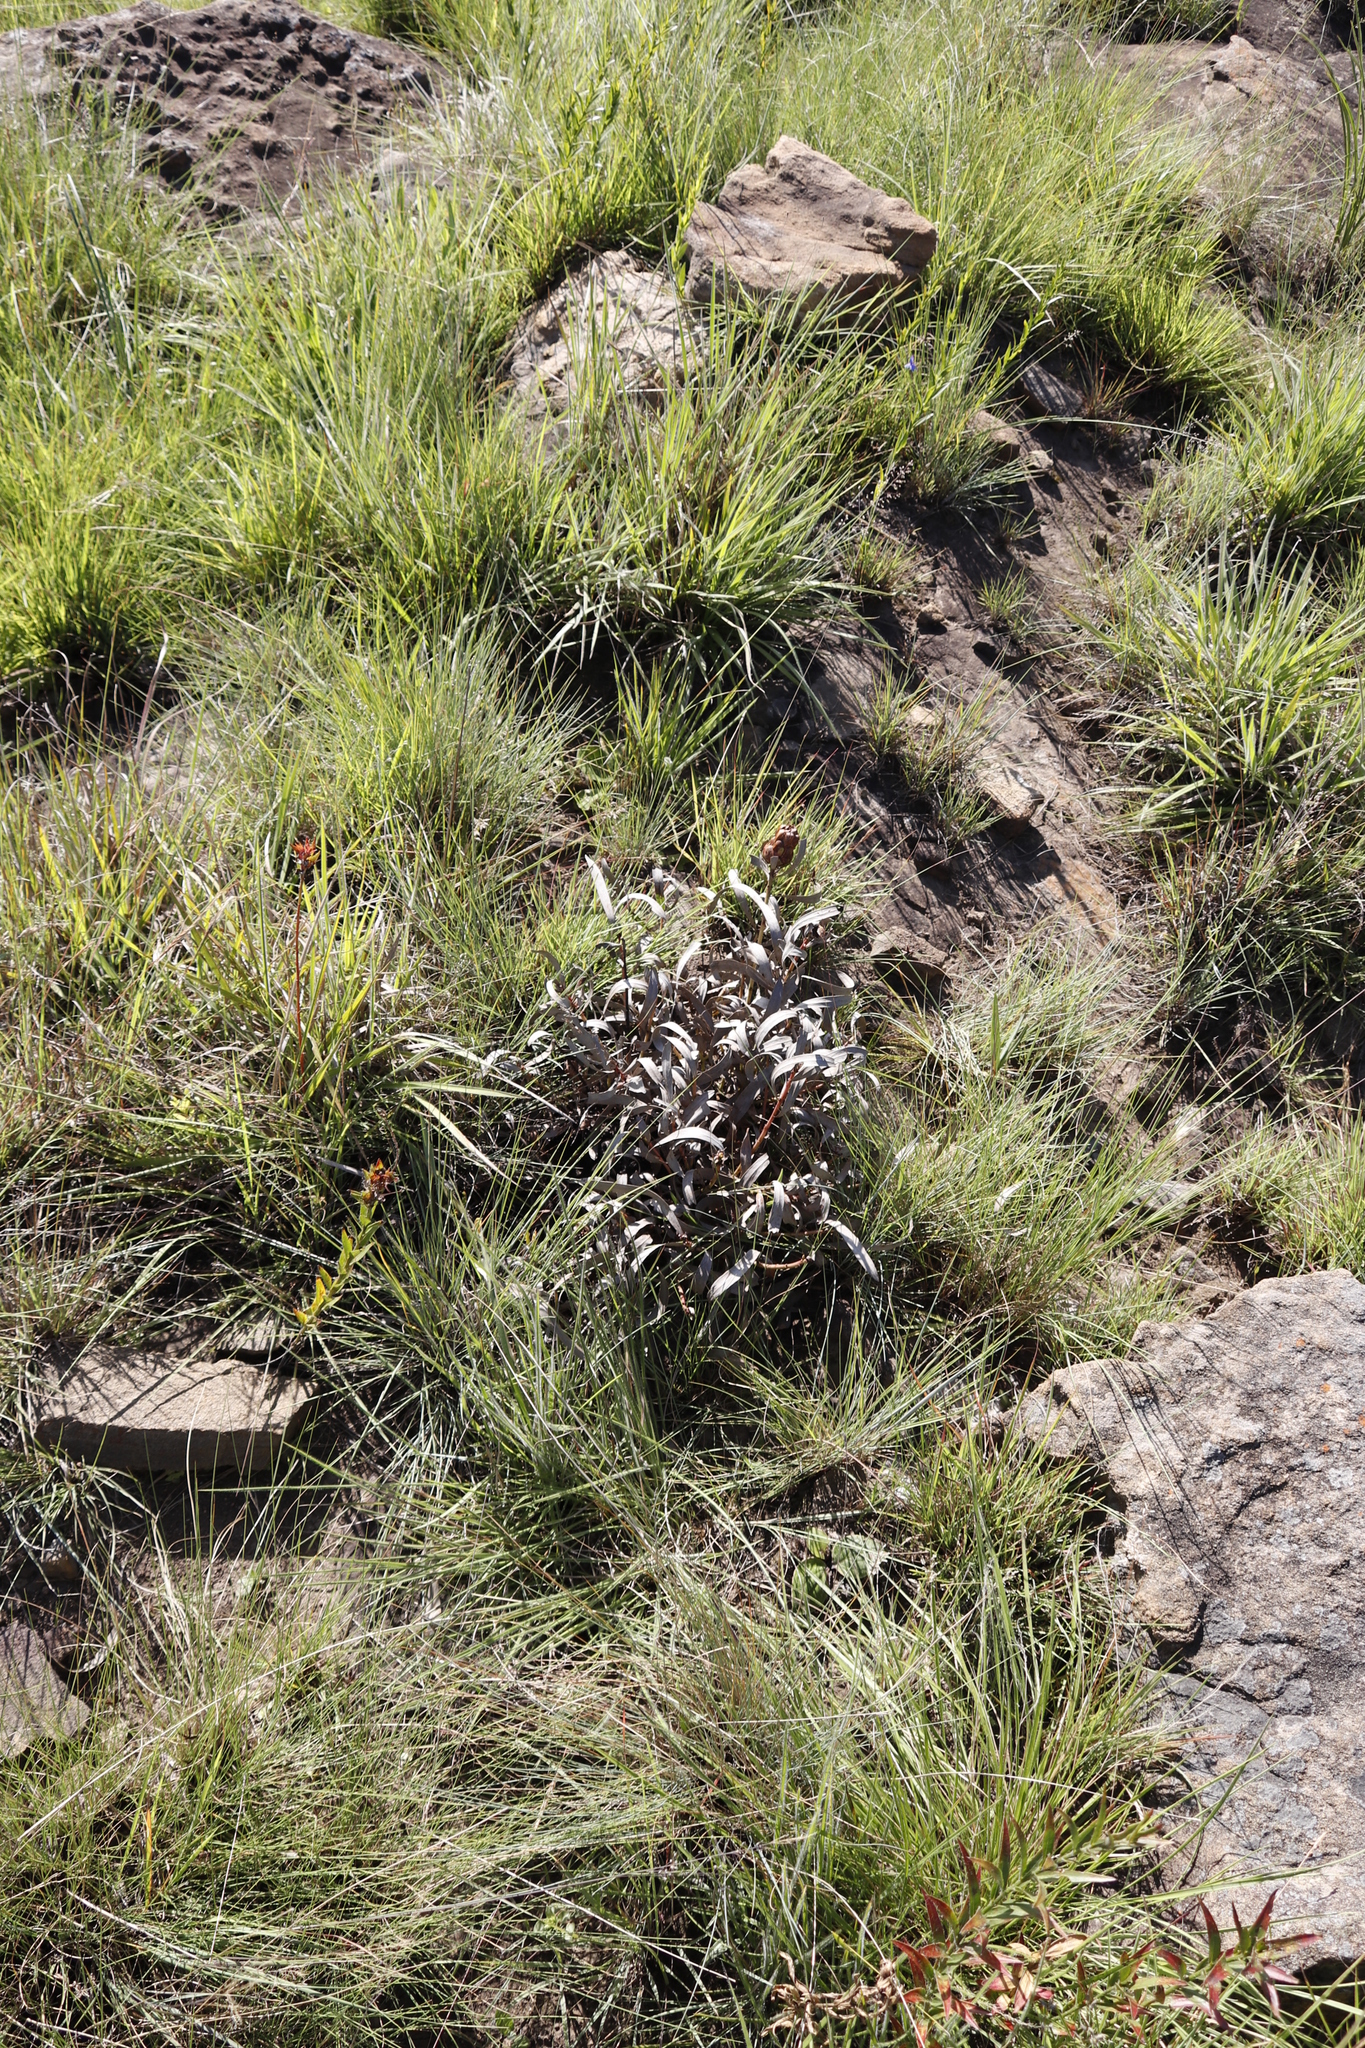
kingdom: Plantae
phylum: Tracheophyta
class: Magnoliopsida
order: Proteales
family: Proteaceae
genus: Protea
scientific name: Protea simplex
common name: Dwarf grassveld sugarbush
